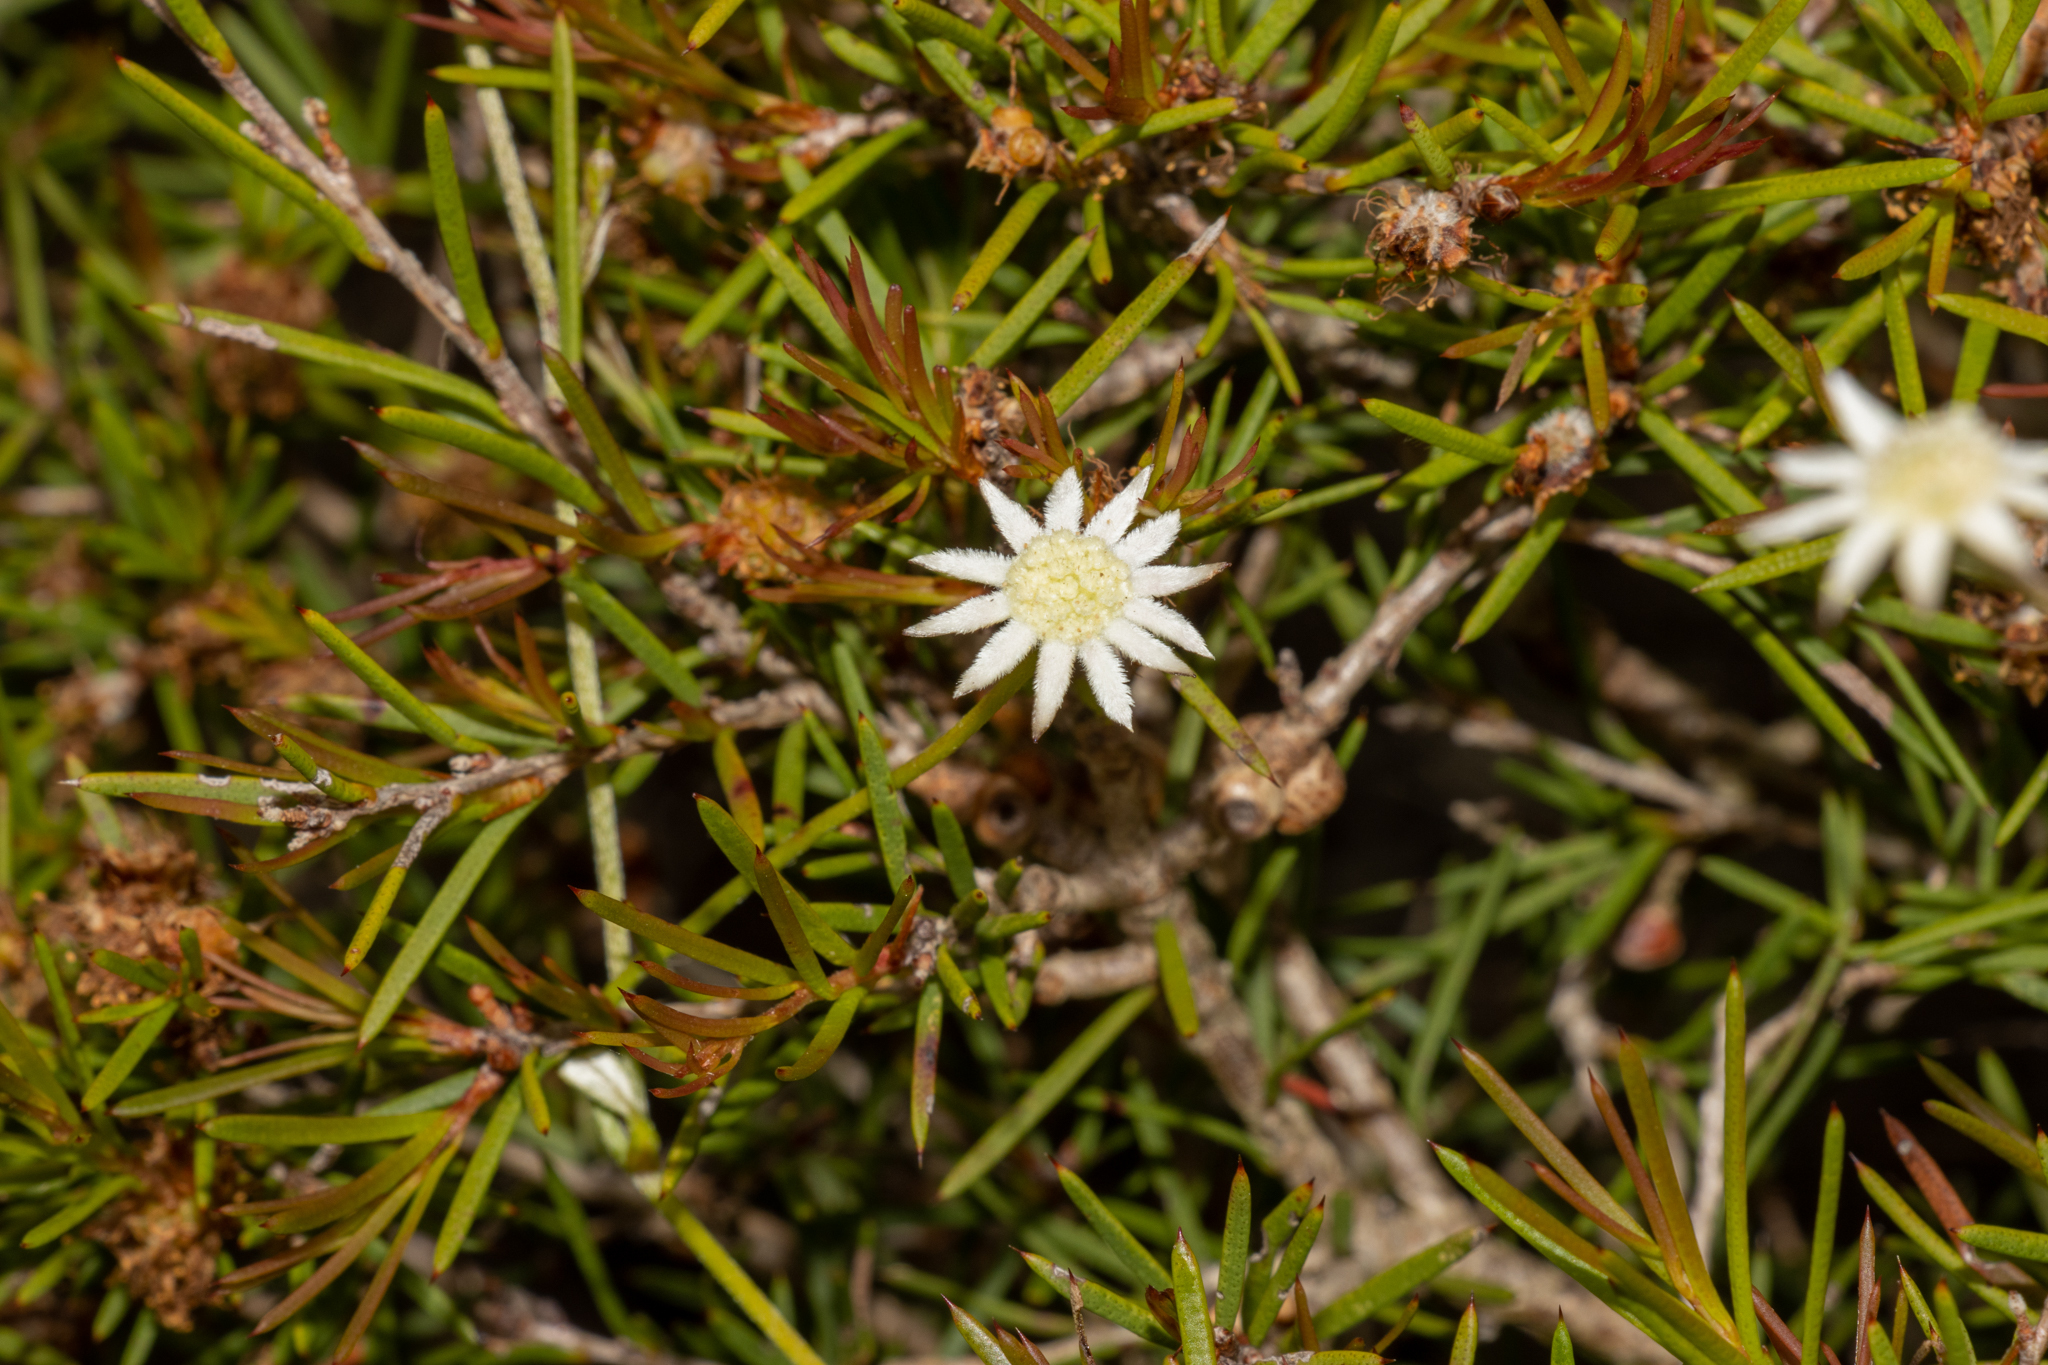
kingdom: Plantae
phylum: Tracheophyta
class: Magnoliopsida
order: Apiales
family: Apiaceae
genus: Actinotus
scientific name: Actinotus minor
